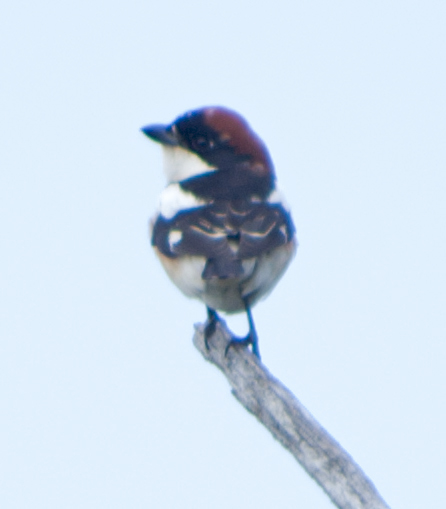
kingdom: Animalia
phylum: Chordata
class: Aves
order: Passeriformes
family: Laniidae
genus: Lanius
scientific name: Lanius senator
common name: Woodchat shrike
